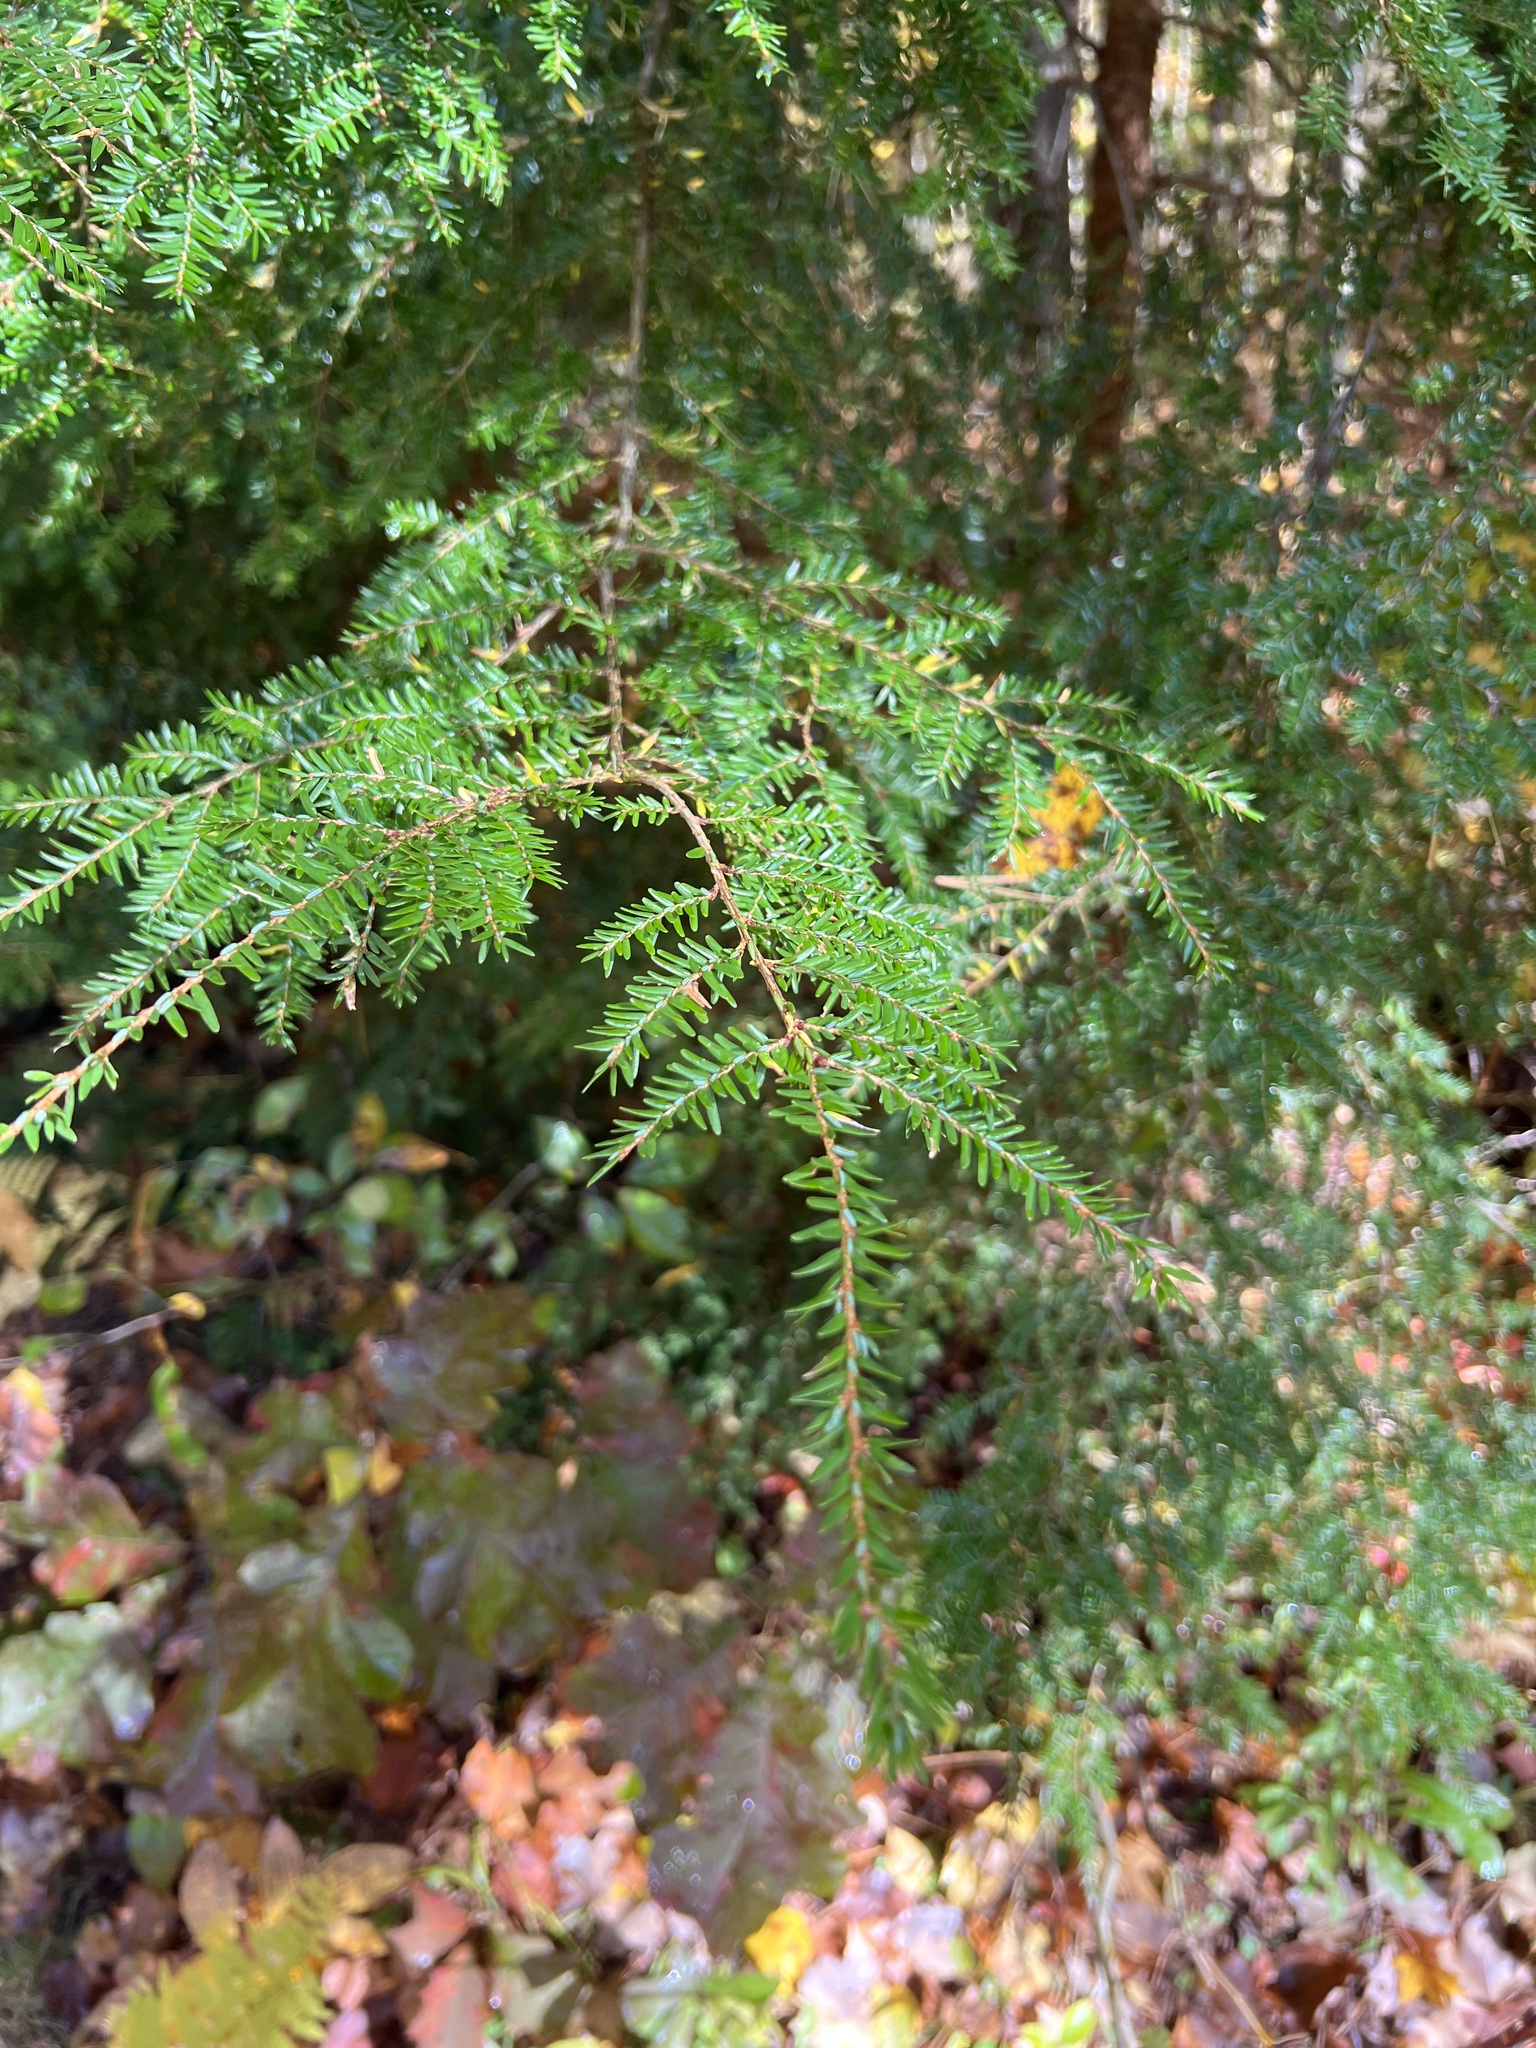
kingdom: Plantae
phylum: Tracheophyta
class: Pinopsida
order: Pinales
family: Pinaceae
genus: Tsuga
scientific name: Tsuga canadensis
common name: Eastern hemlock
